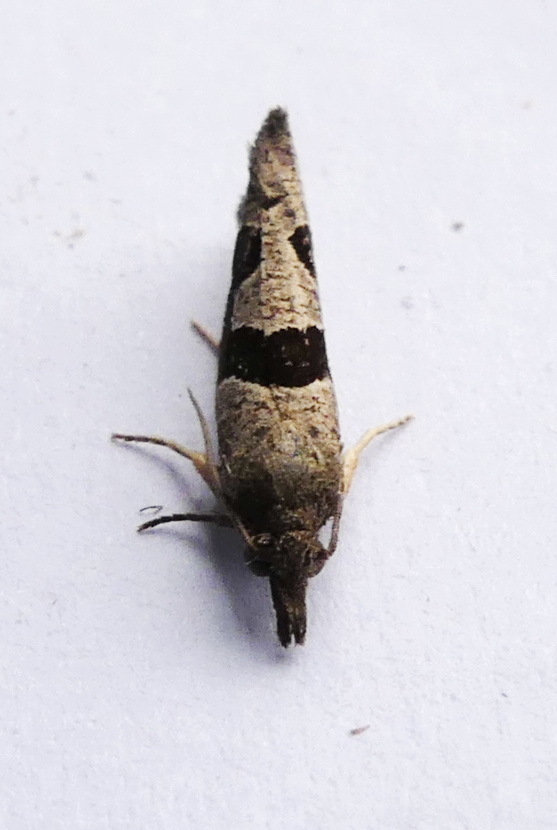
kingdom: Animalia
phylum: Arthropoda
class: Insecta
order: Lepidoptera
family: Tortricidae
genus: Pelochrista
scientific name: Pelochrista similiana
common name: Similar eucosma
